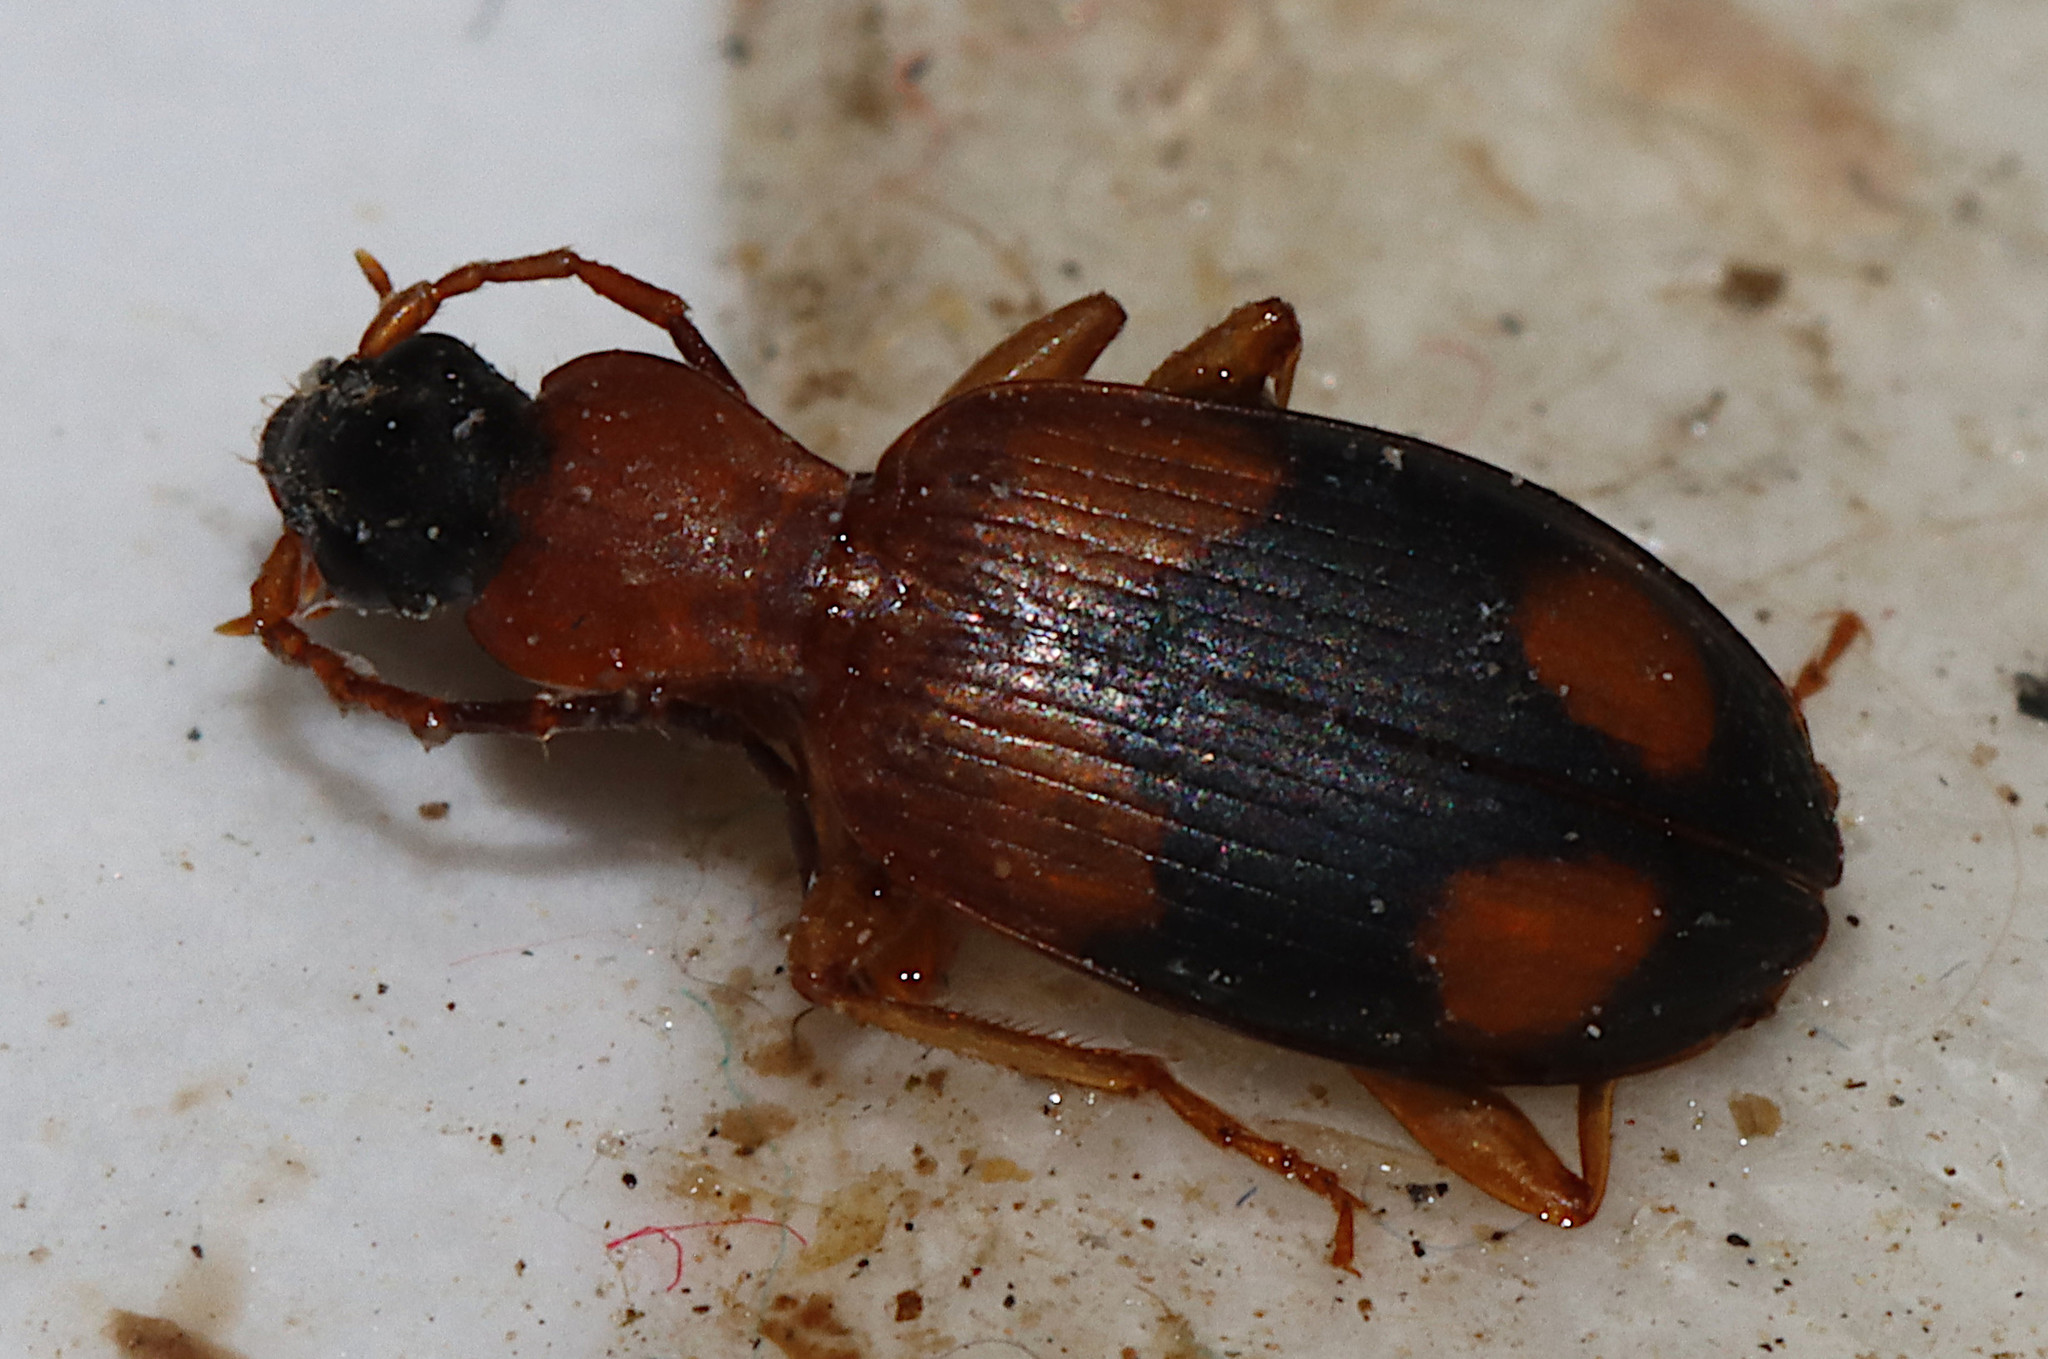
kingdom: Animalia
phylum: Arthropoda
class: Insecta
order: Coleoptera
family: Carabidae
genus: Agonum
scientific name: Agonum quadrimaculatum
